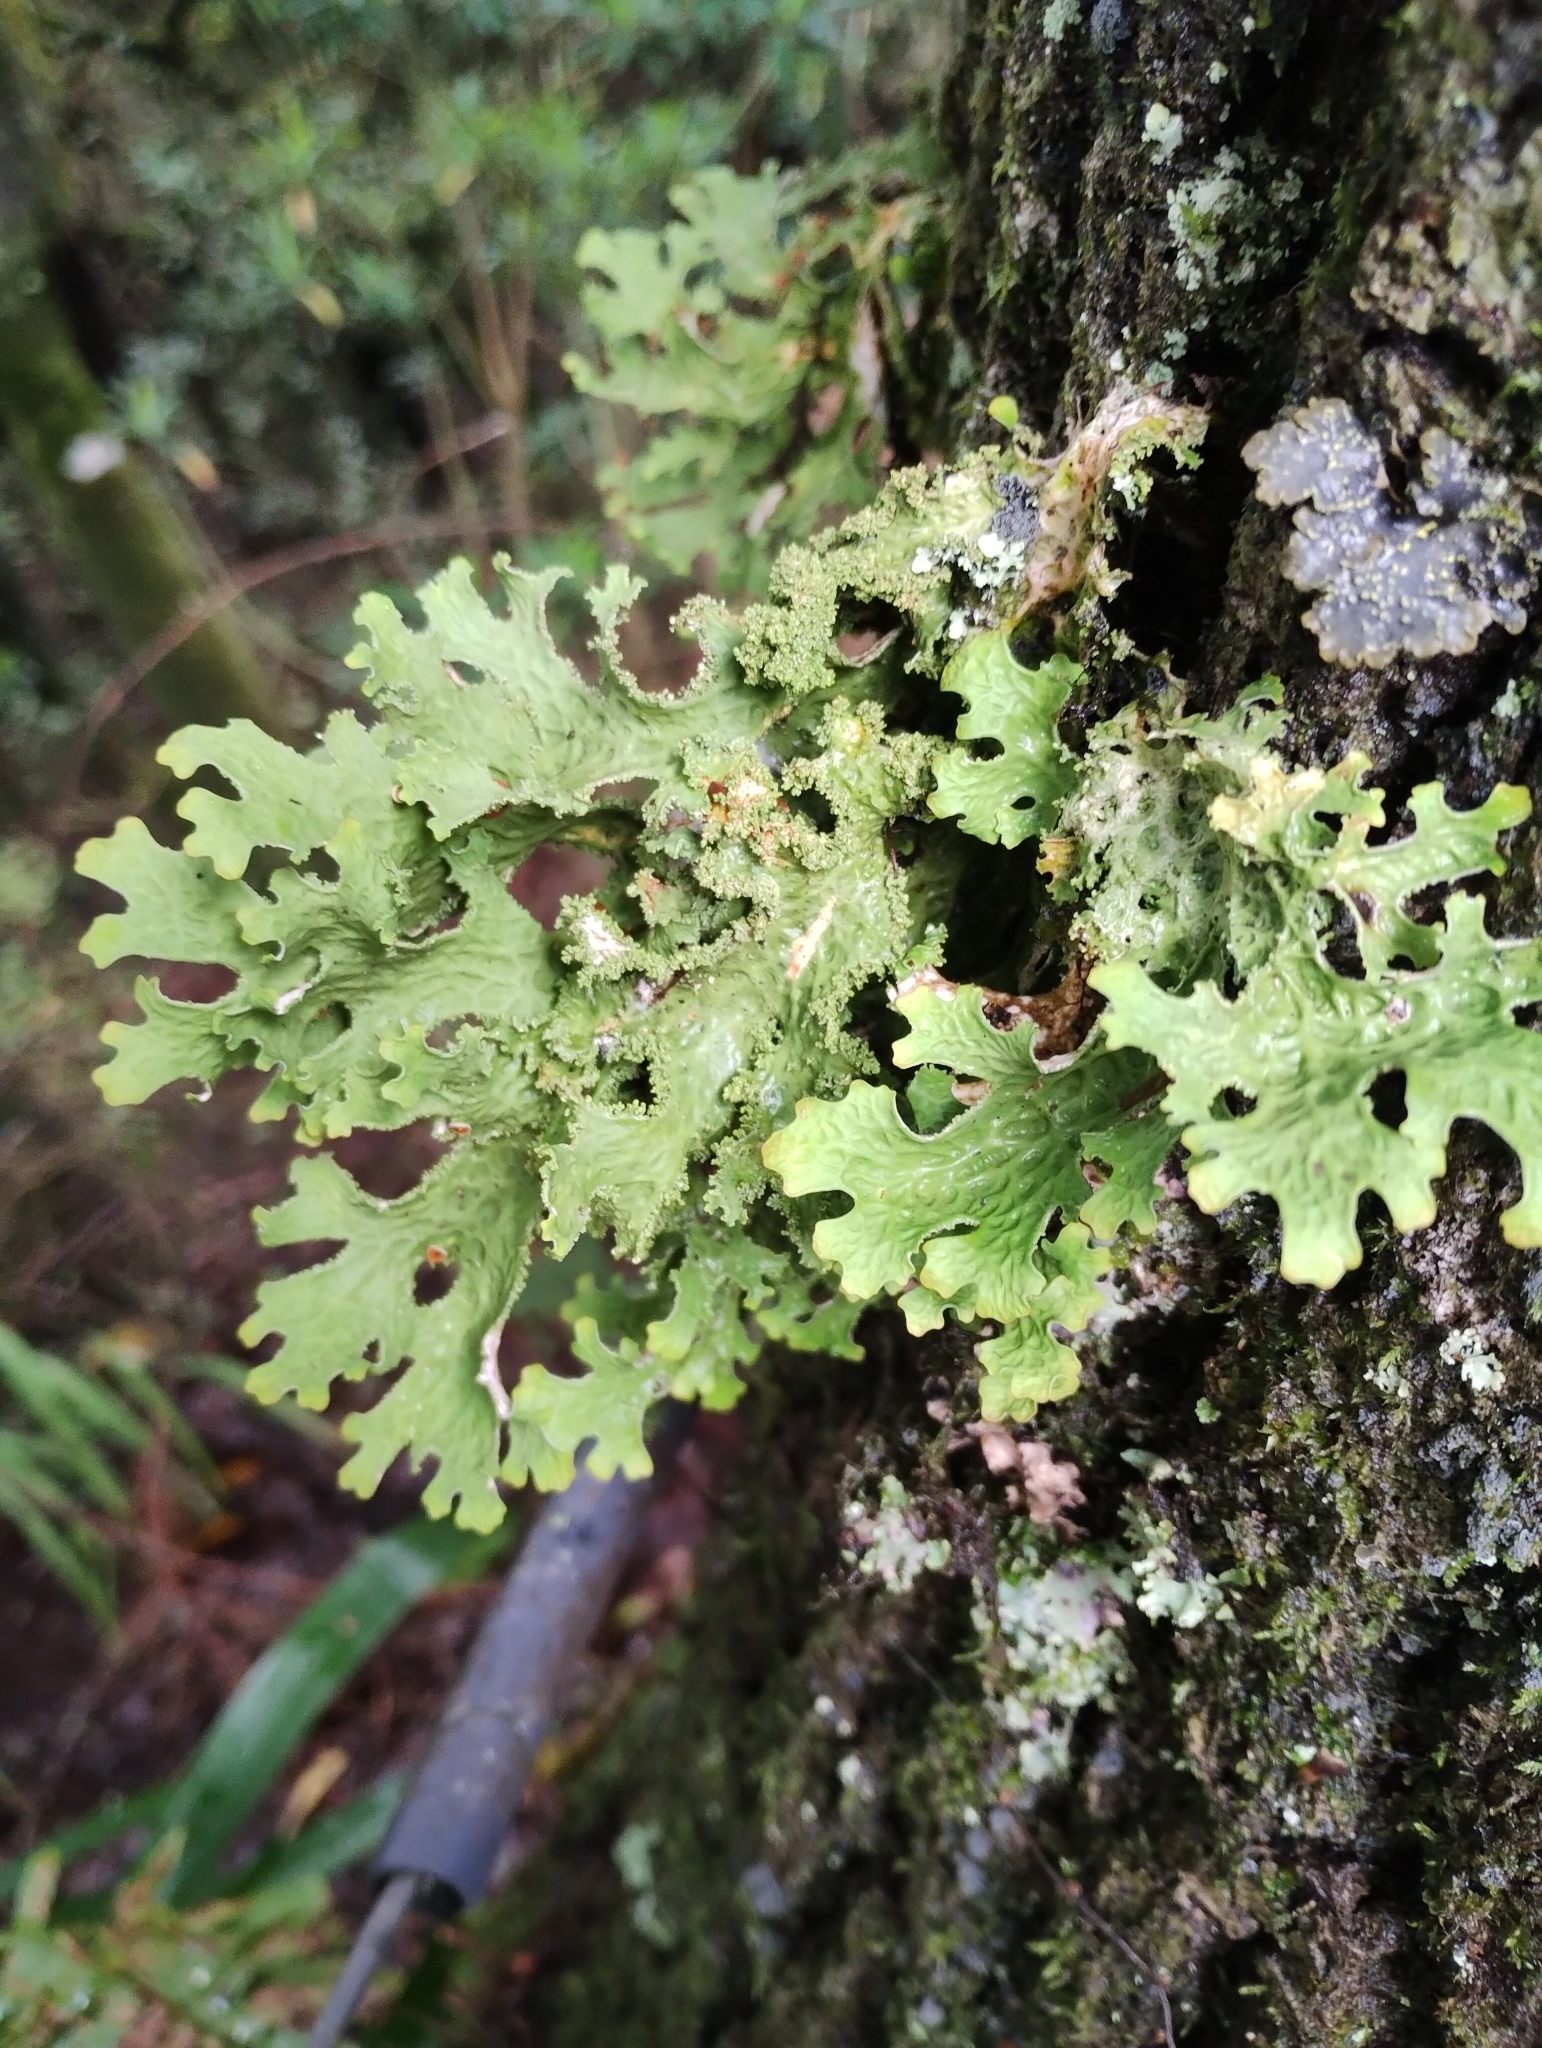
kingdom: Fungi
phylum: Ascomycota
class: Lecanoromycetes
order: Peltigerales
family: Lobariaceae
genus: Lobaria
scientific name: Lobaria pulmonaria
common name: Lungwort
